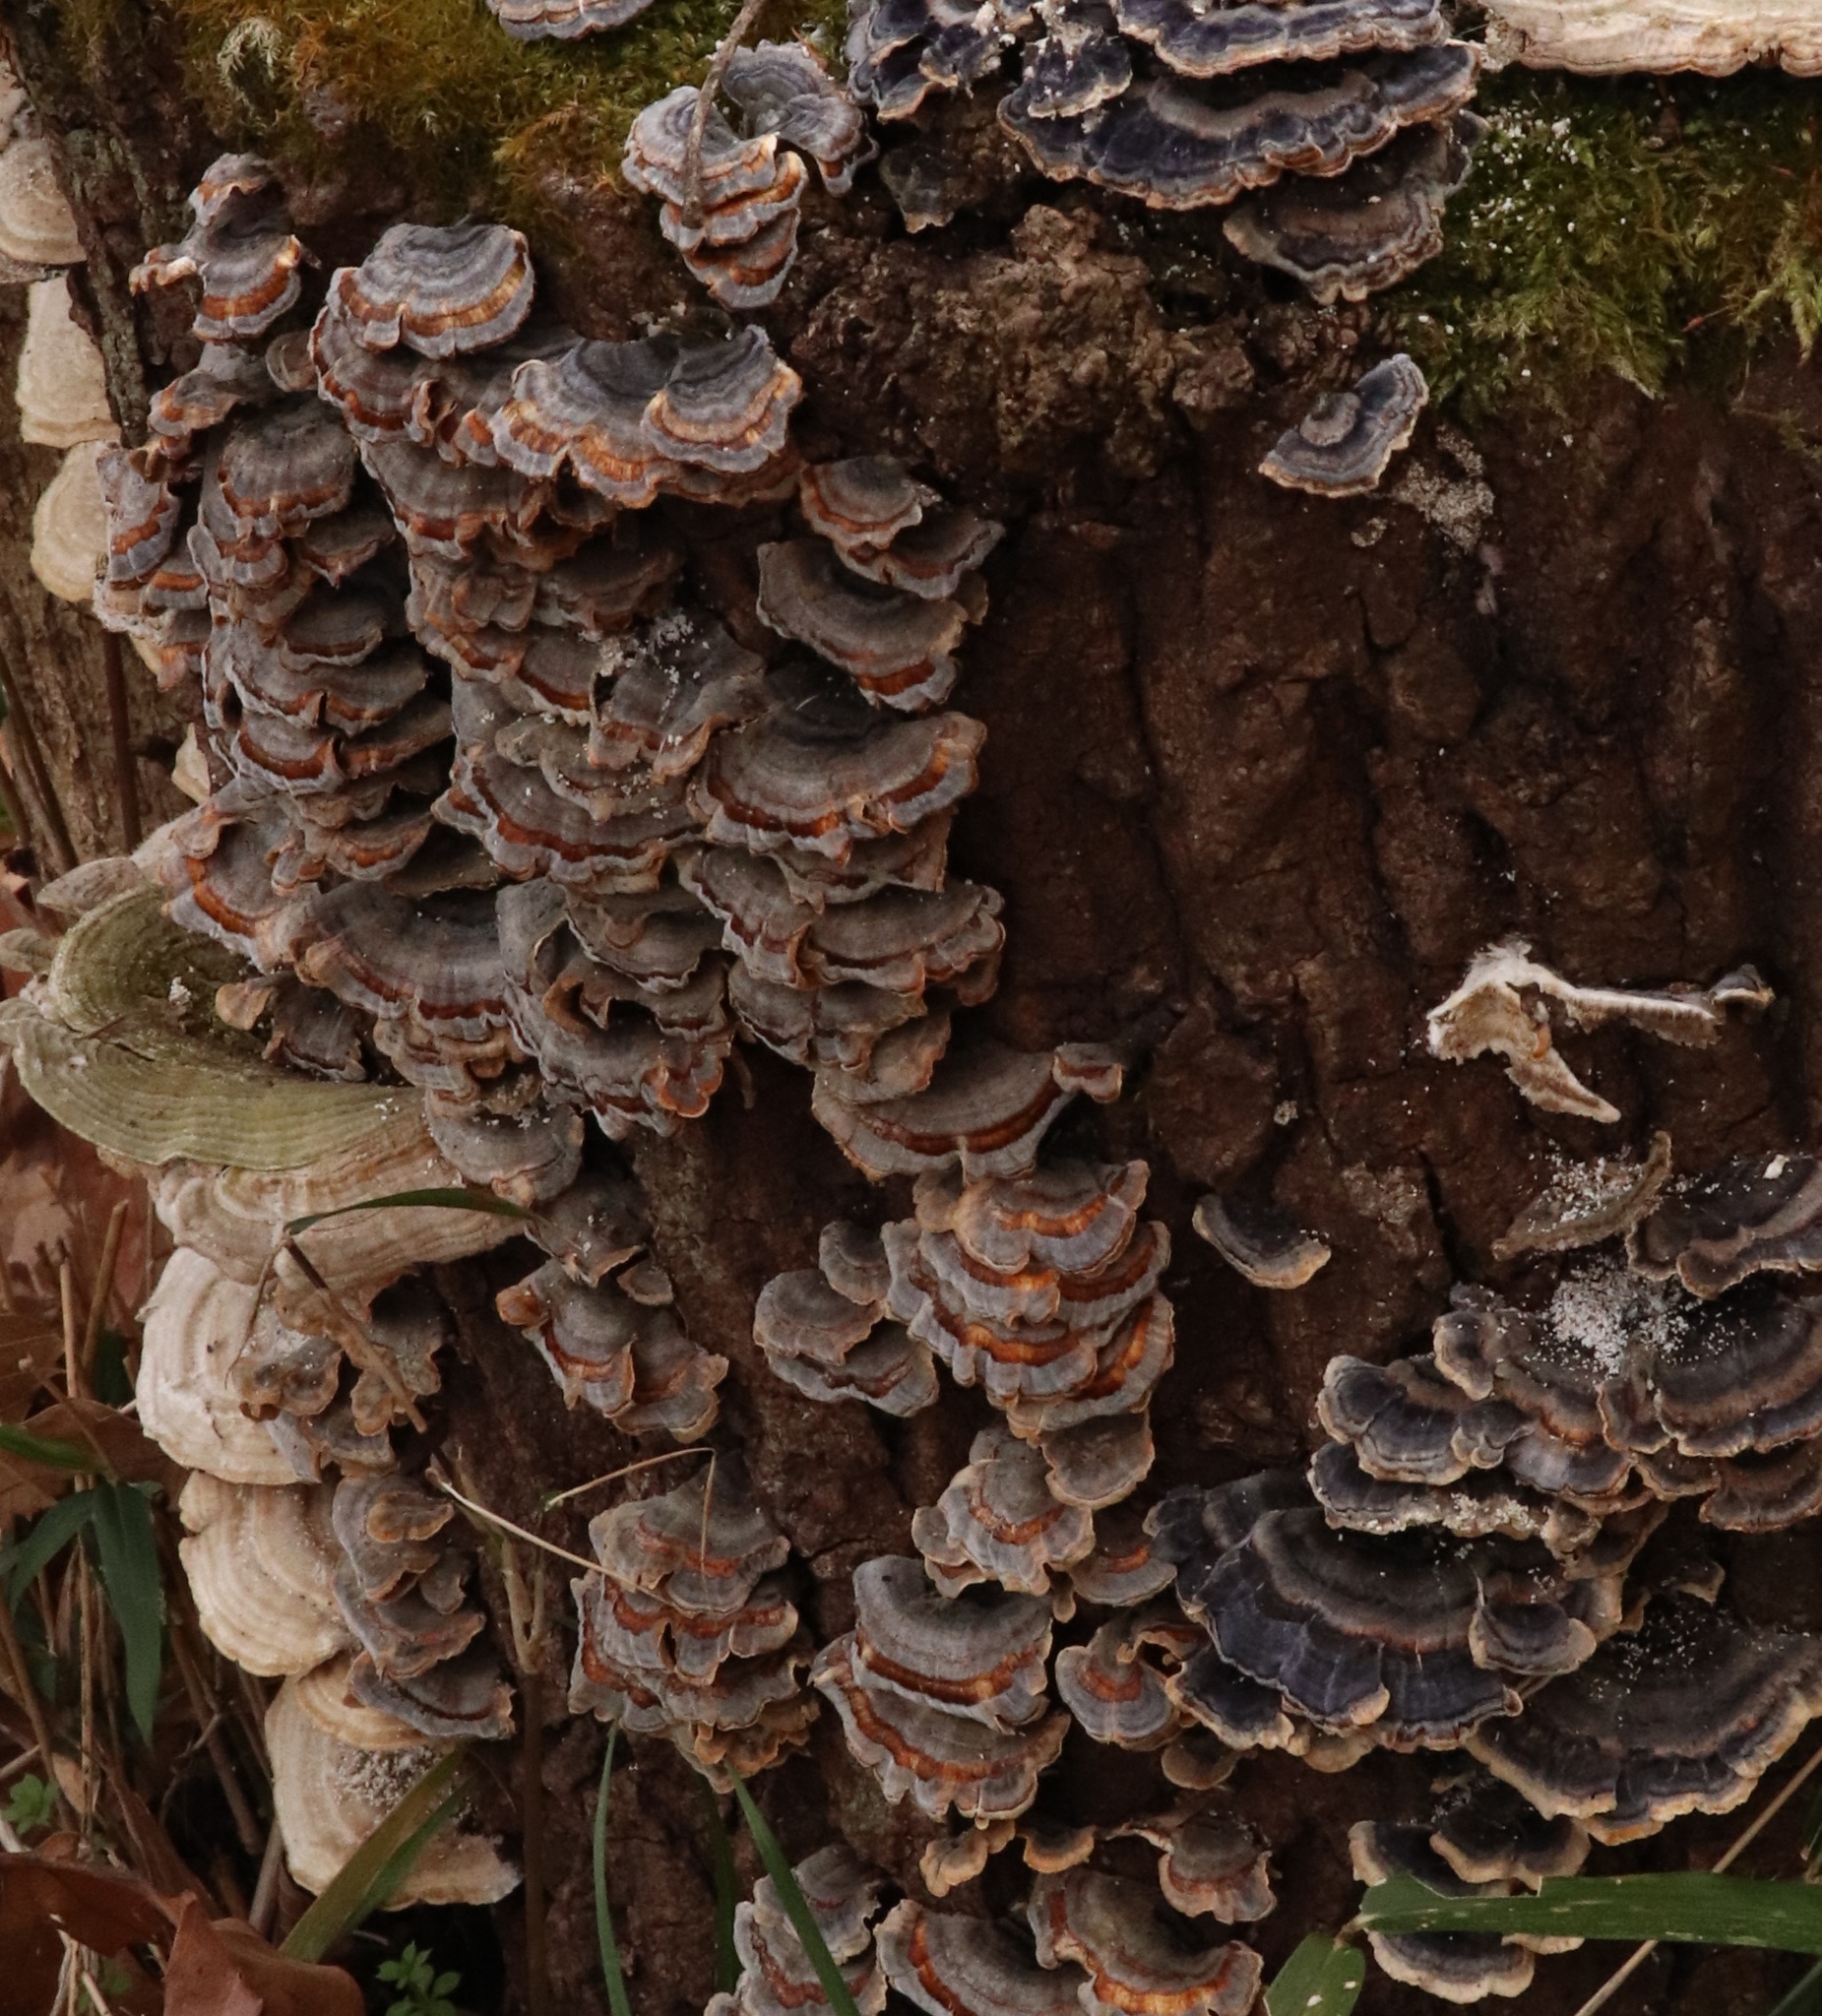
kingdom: Fungi
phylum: Basidiomycota
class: Agaricomycetes
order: Polyporales
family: Polyporaceae
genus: Trametes
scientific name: Trametes versicolor
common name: Turkeytail
